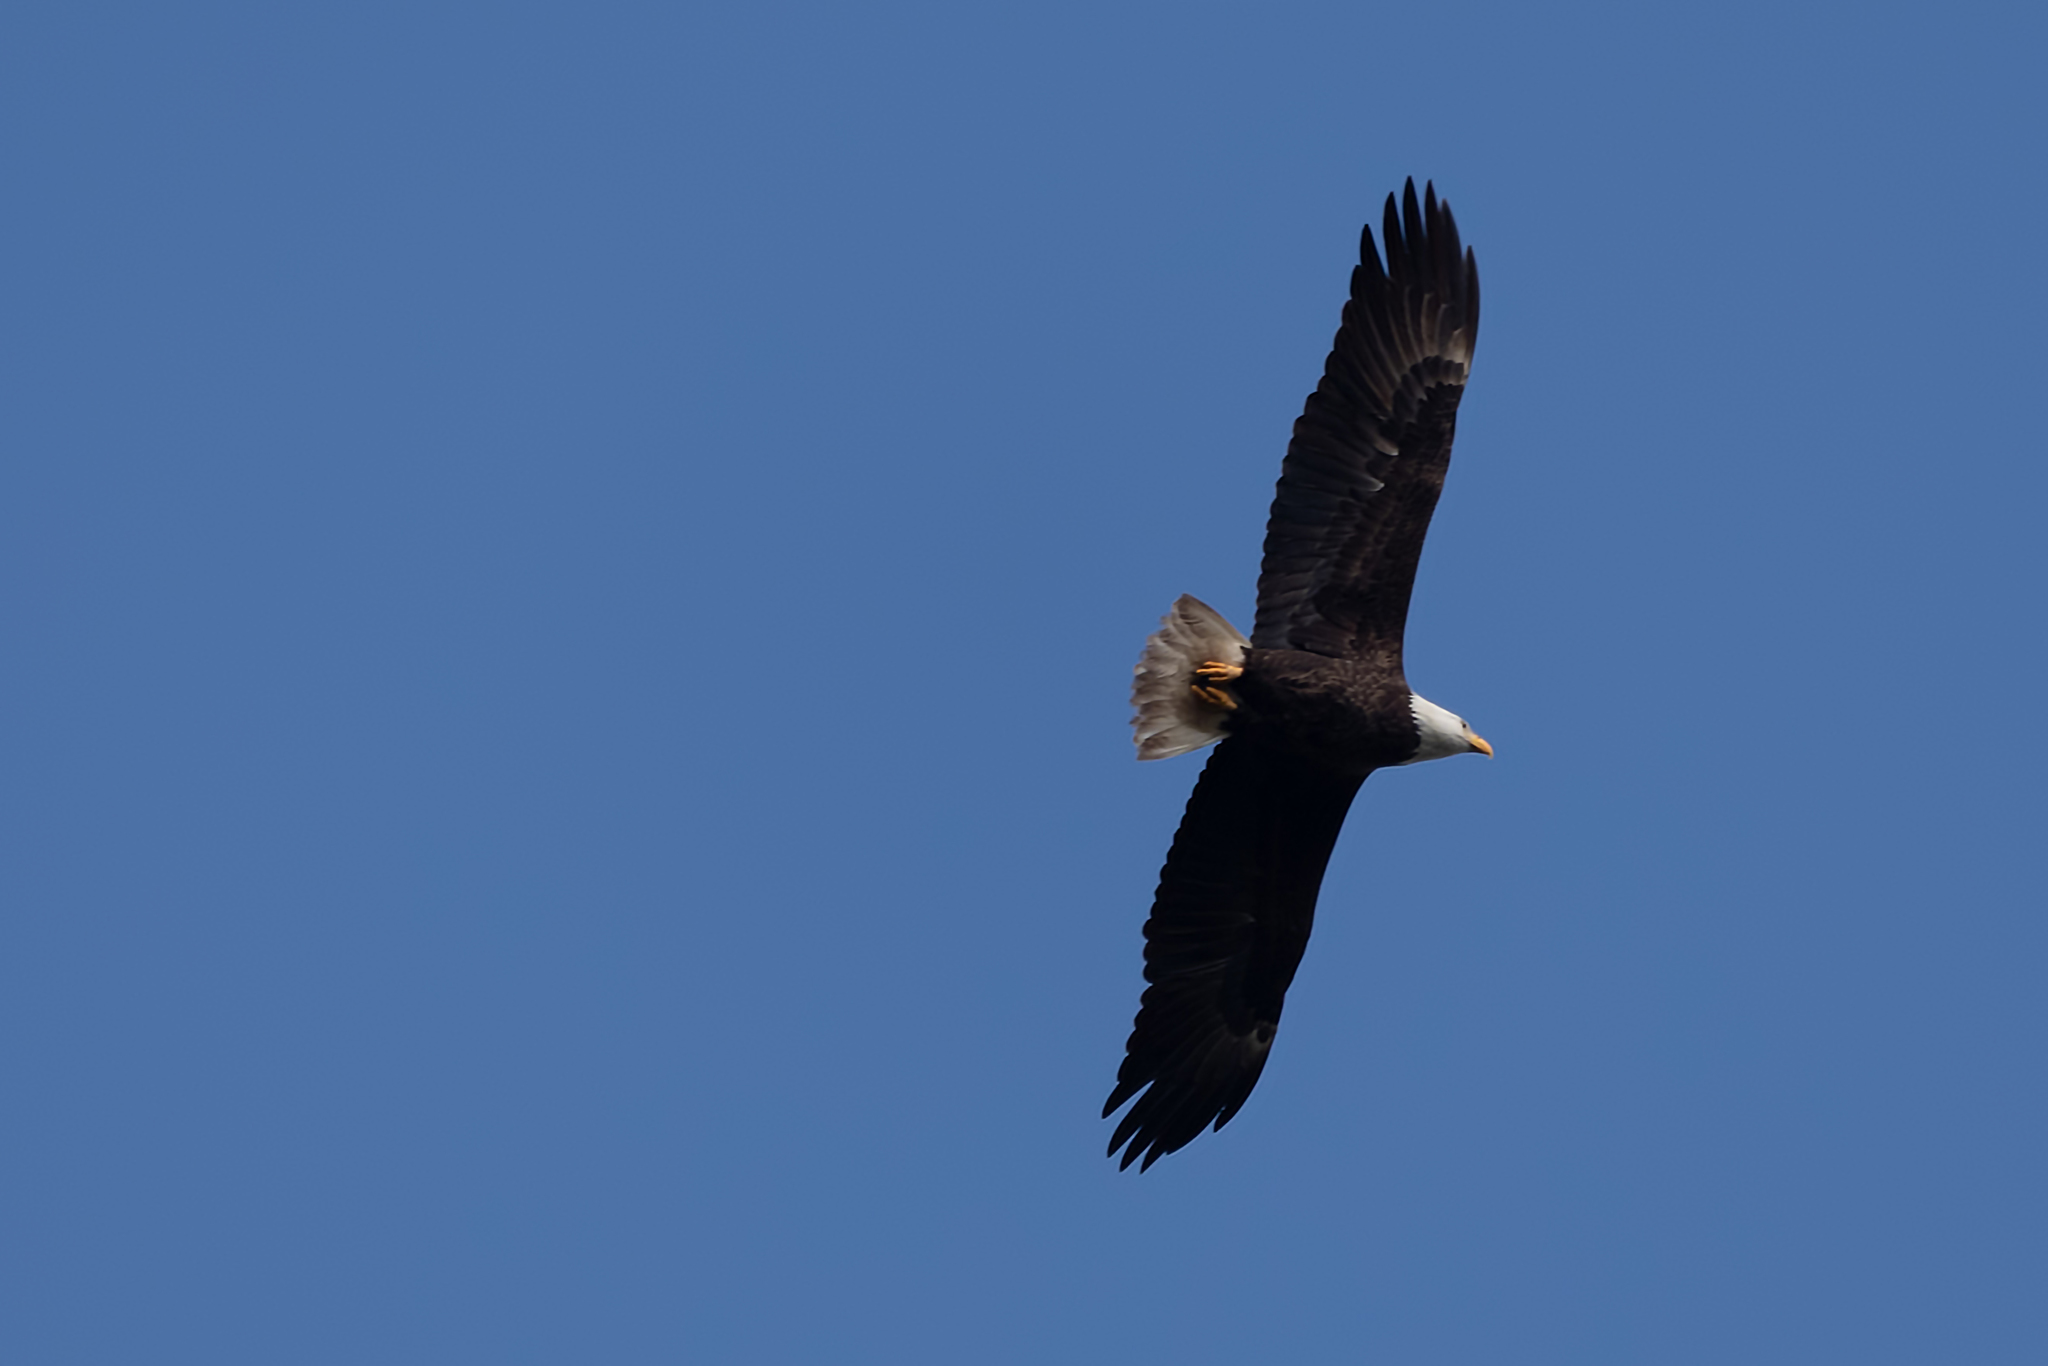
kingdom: Animalia
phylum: Chordata
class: Aves
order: Accipitriformes
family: Accipitridae
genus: Haliaeetus
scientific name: Haliaeetus leucocephalus
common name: Bald eagle
